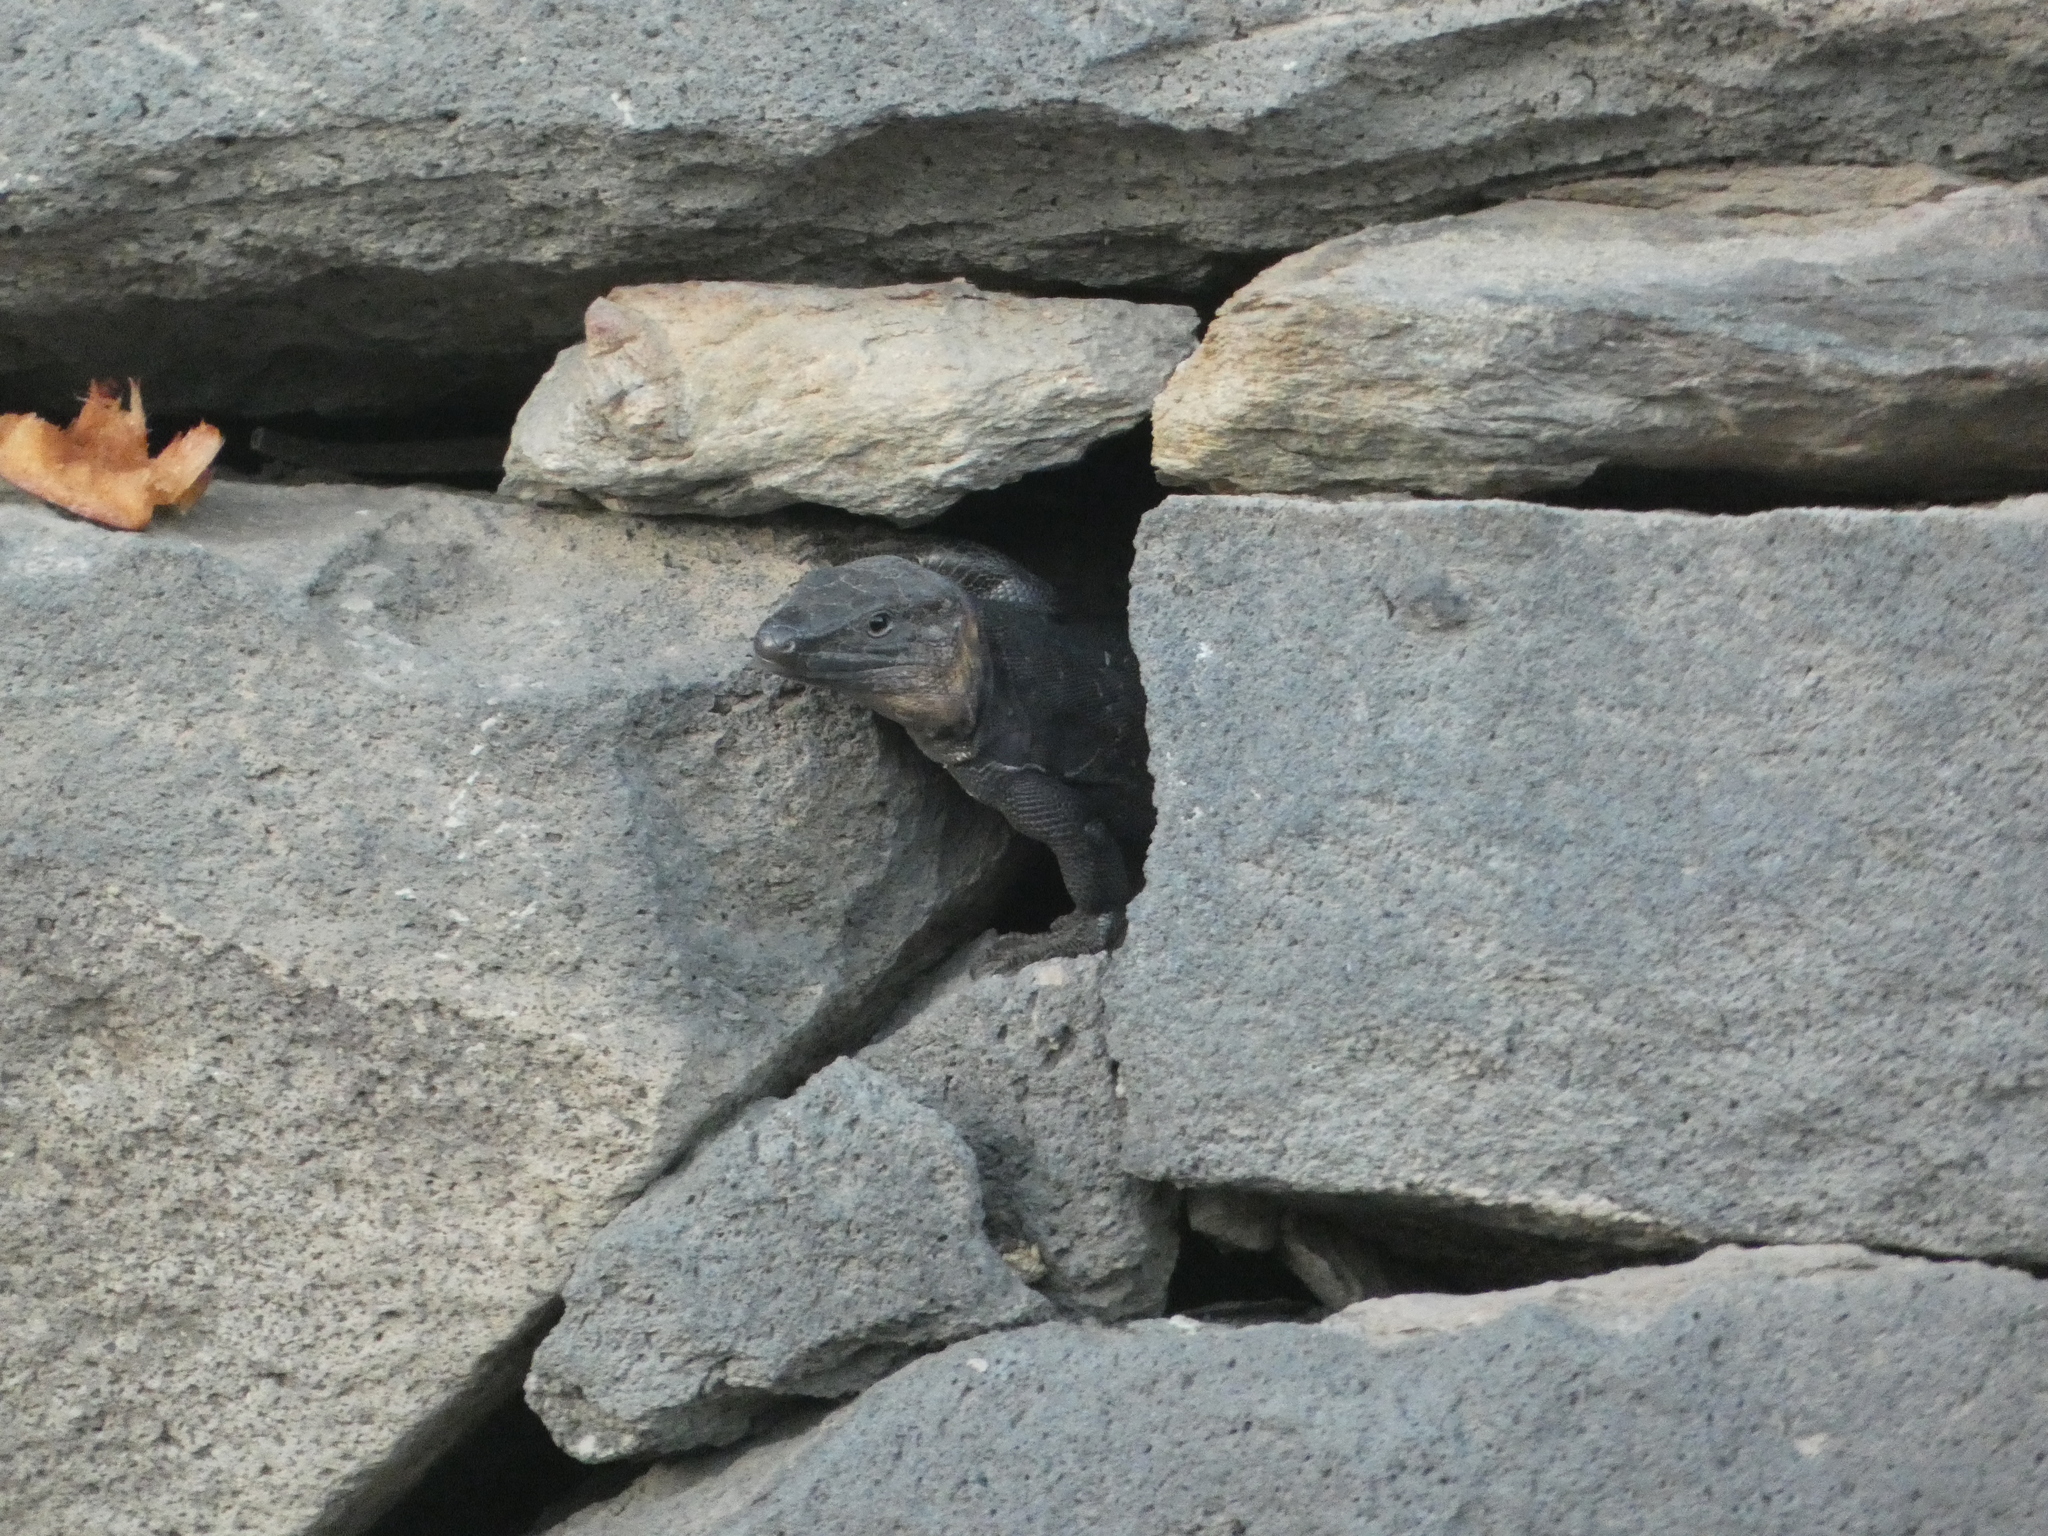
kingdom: Animalia
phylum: Chordata
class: Squamata
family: Lacertidae
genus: Gallotia
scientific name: Gallotia stehlini
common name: Gran canaria giant lizard
